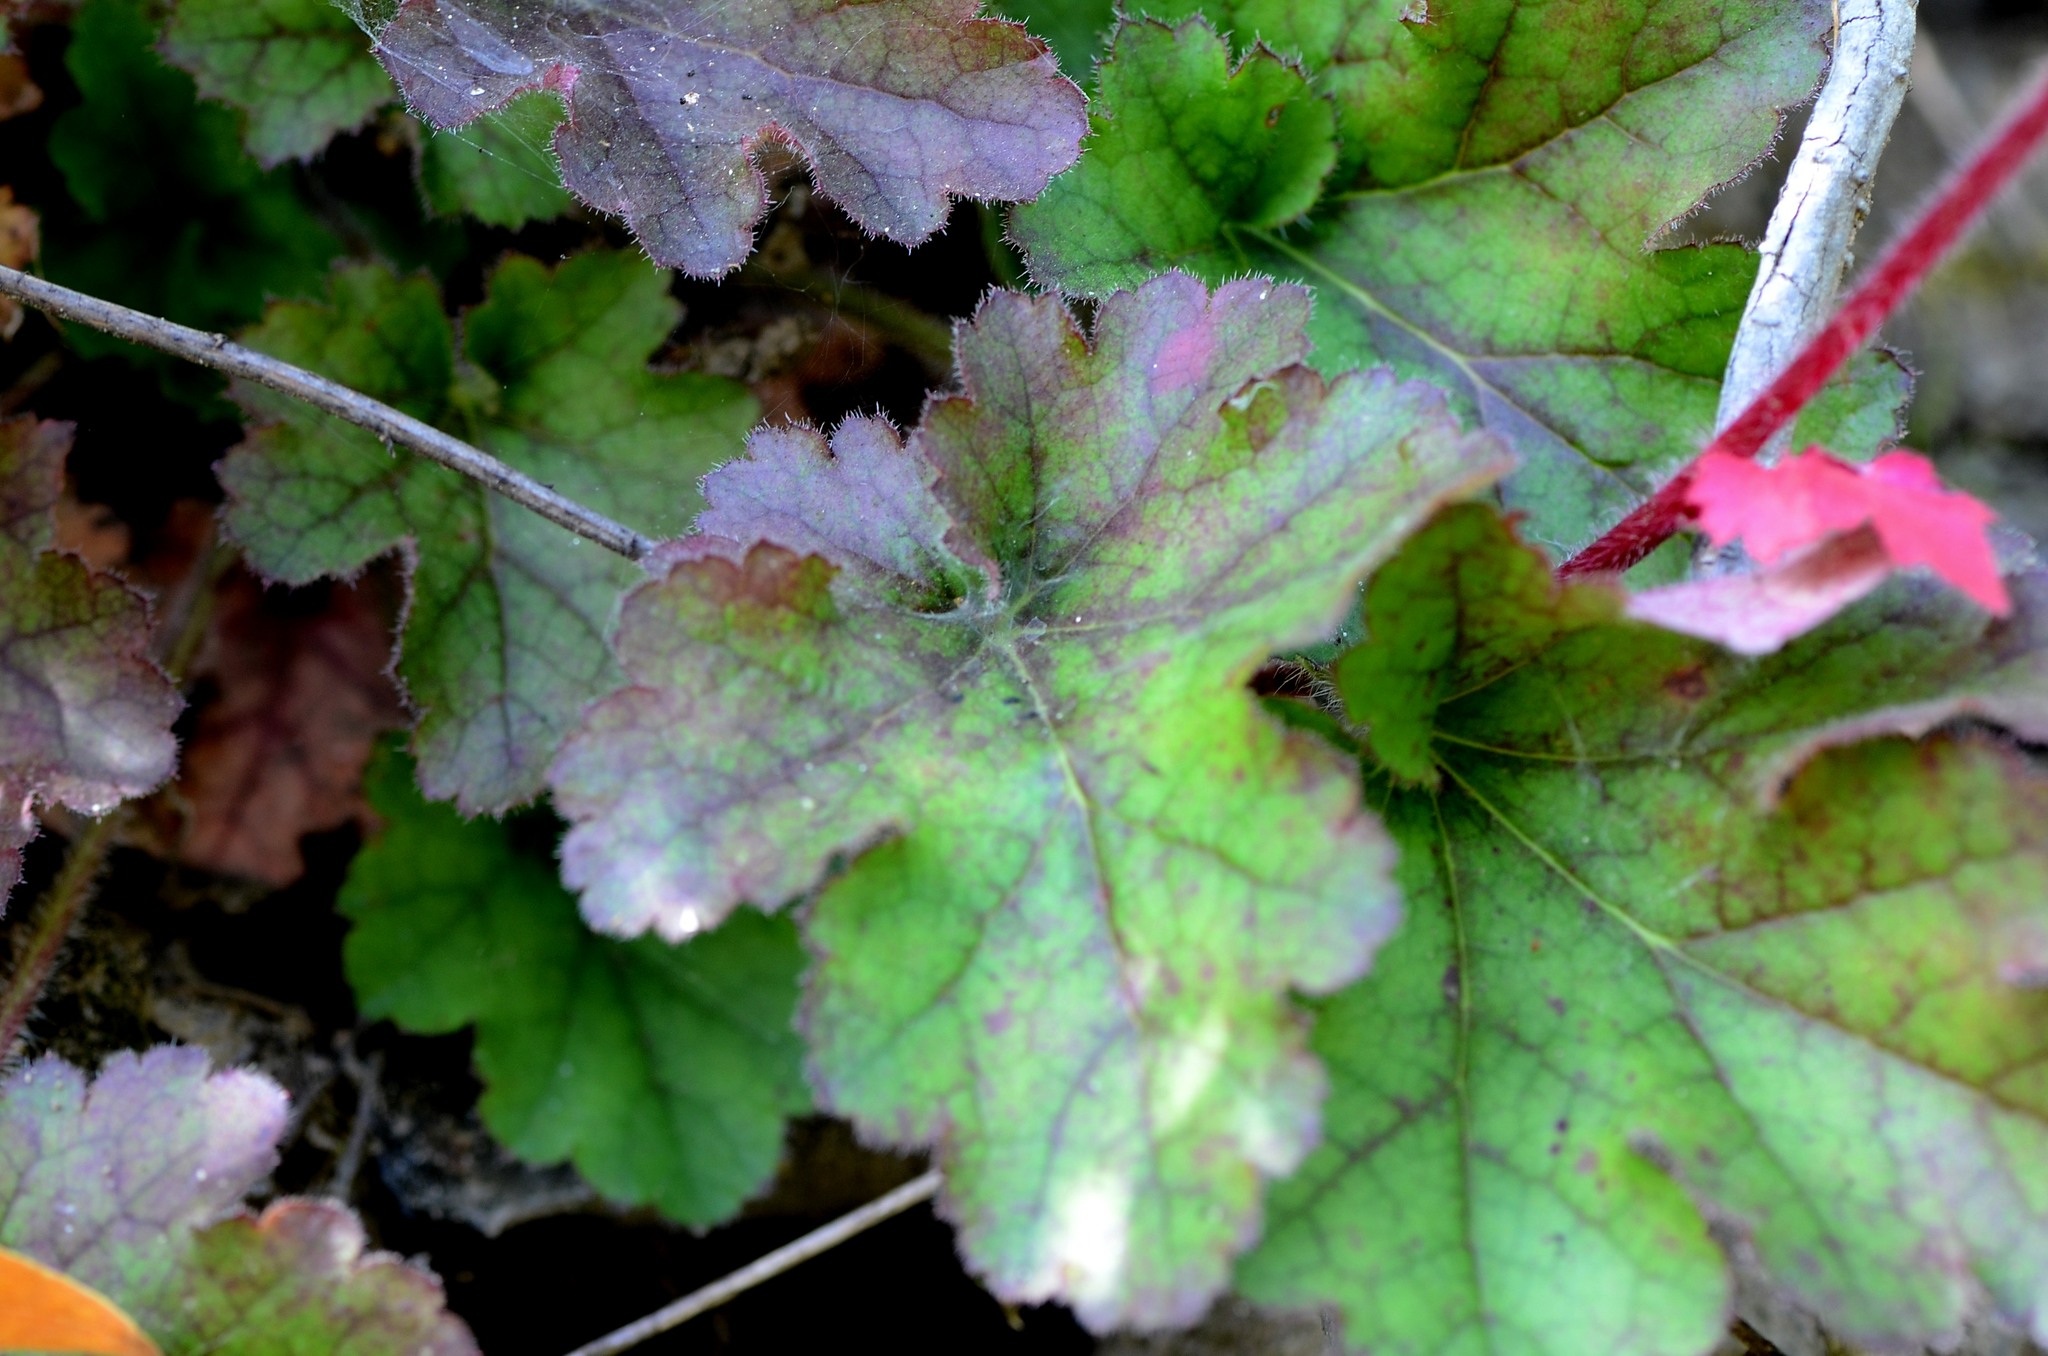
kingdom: Plantae
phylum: Tracheophyta
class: Magnoliopsida
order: Saxifragales
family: Saxifragaceae
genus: Heuchera
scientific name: Heuchera micrantha
